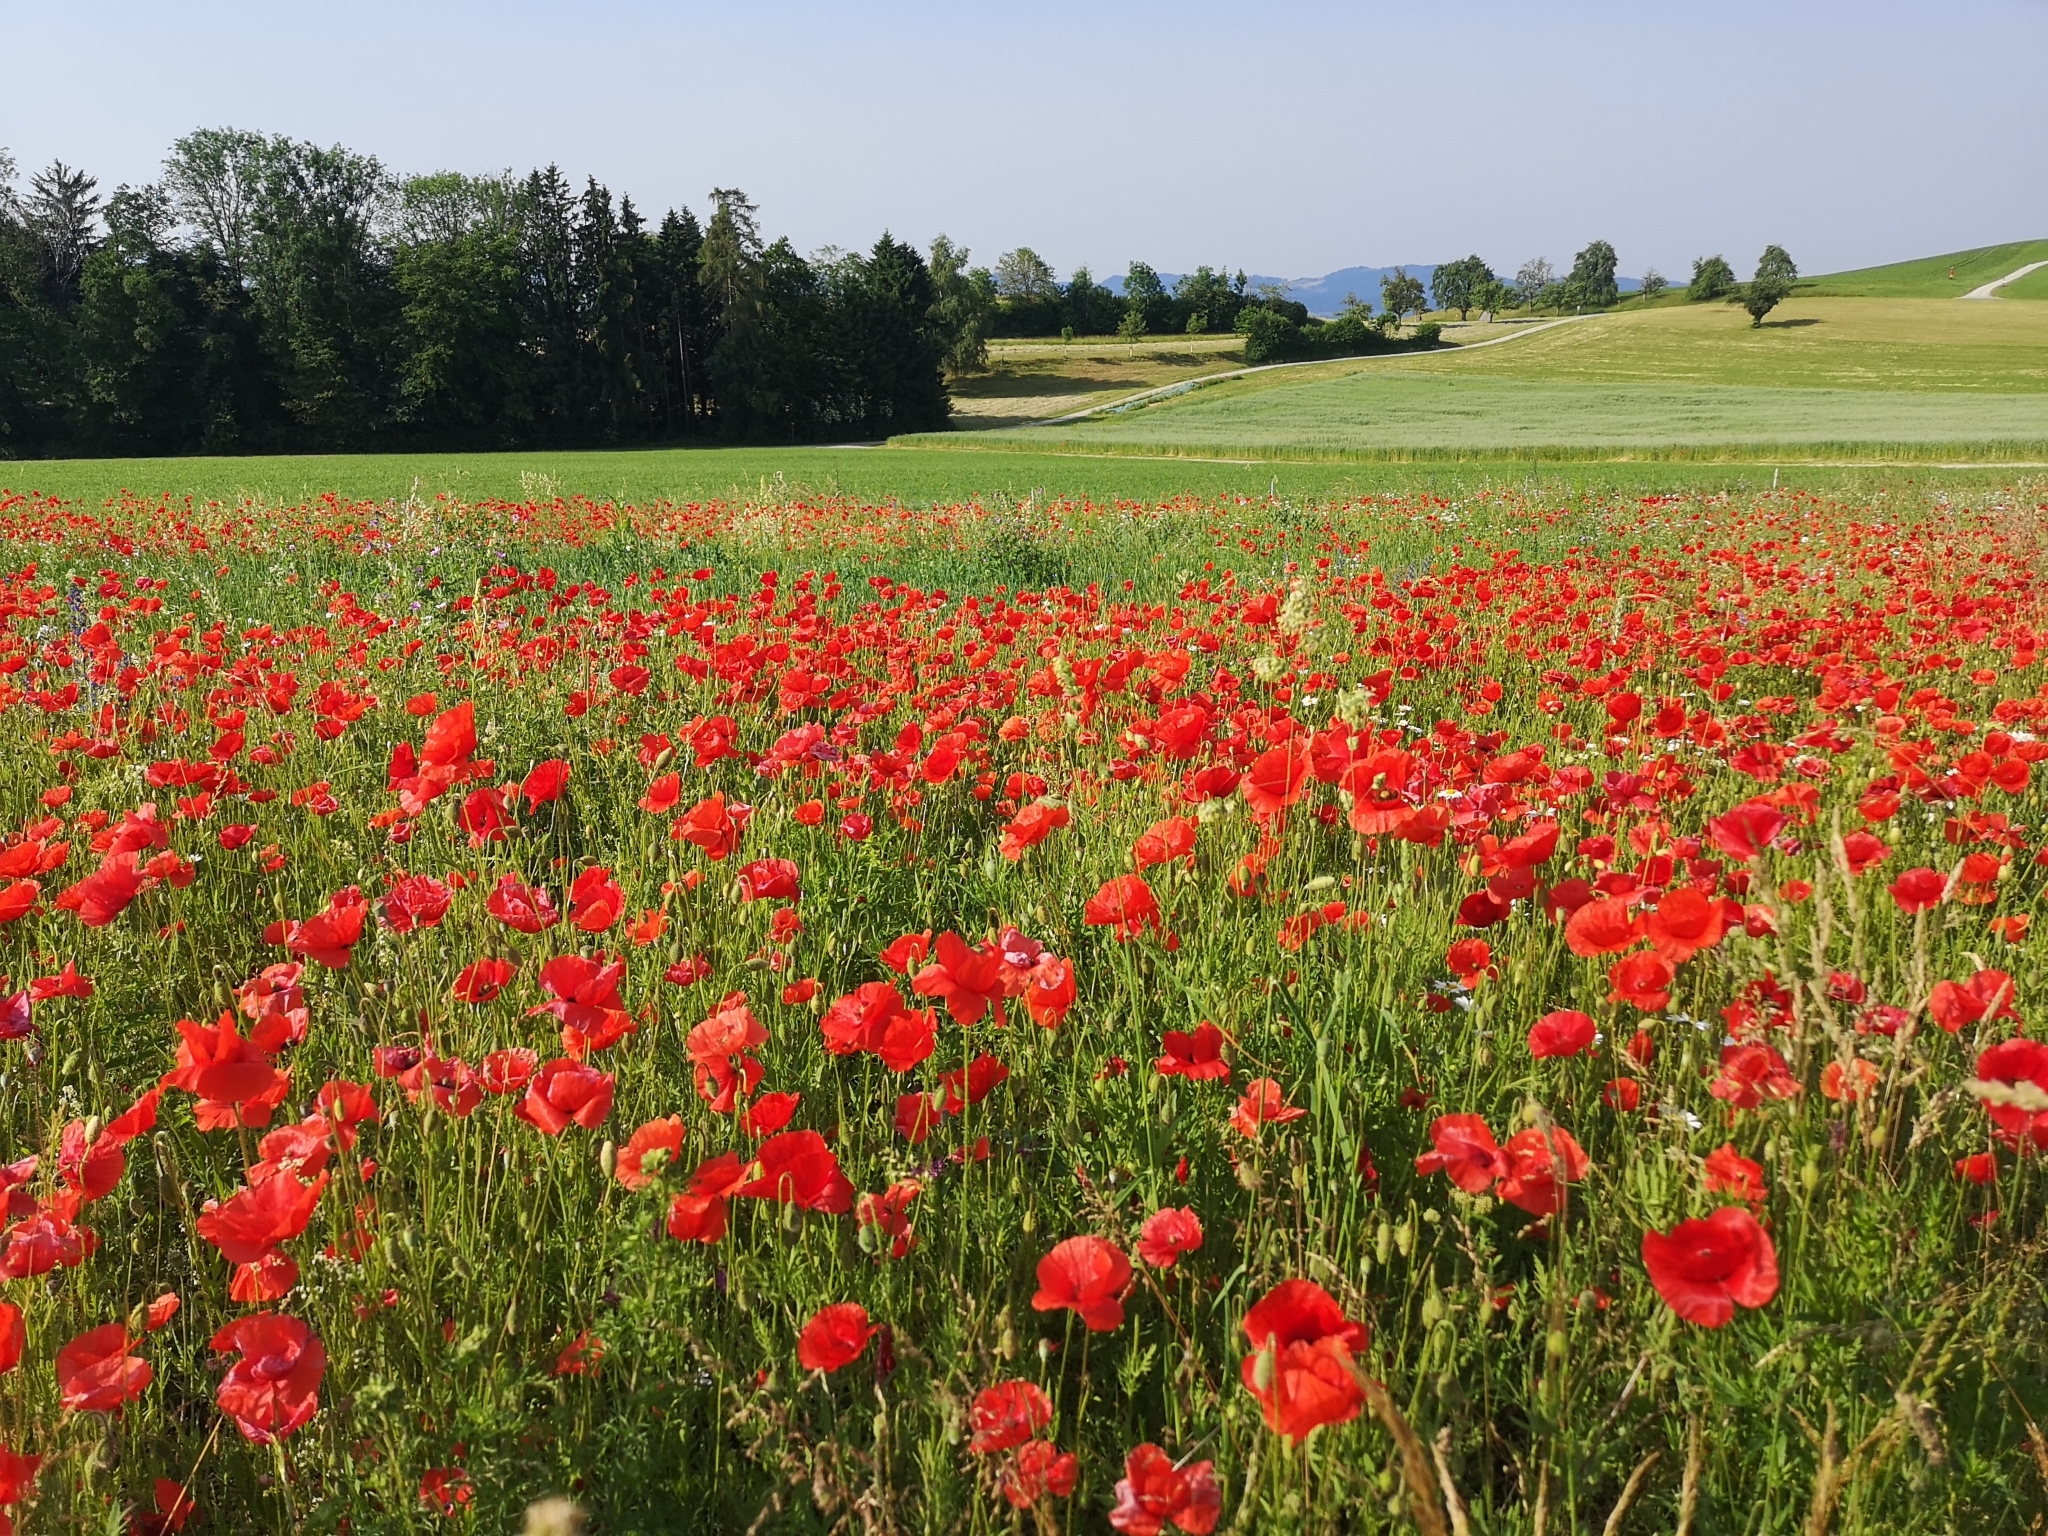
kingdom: Plantae
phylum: Tracheophyta
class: Magnoliopsida
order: Ranunculales
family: Papaveraceae
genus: Papaver
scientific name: Papaver rhoeas
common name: Corn poppy
